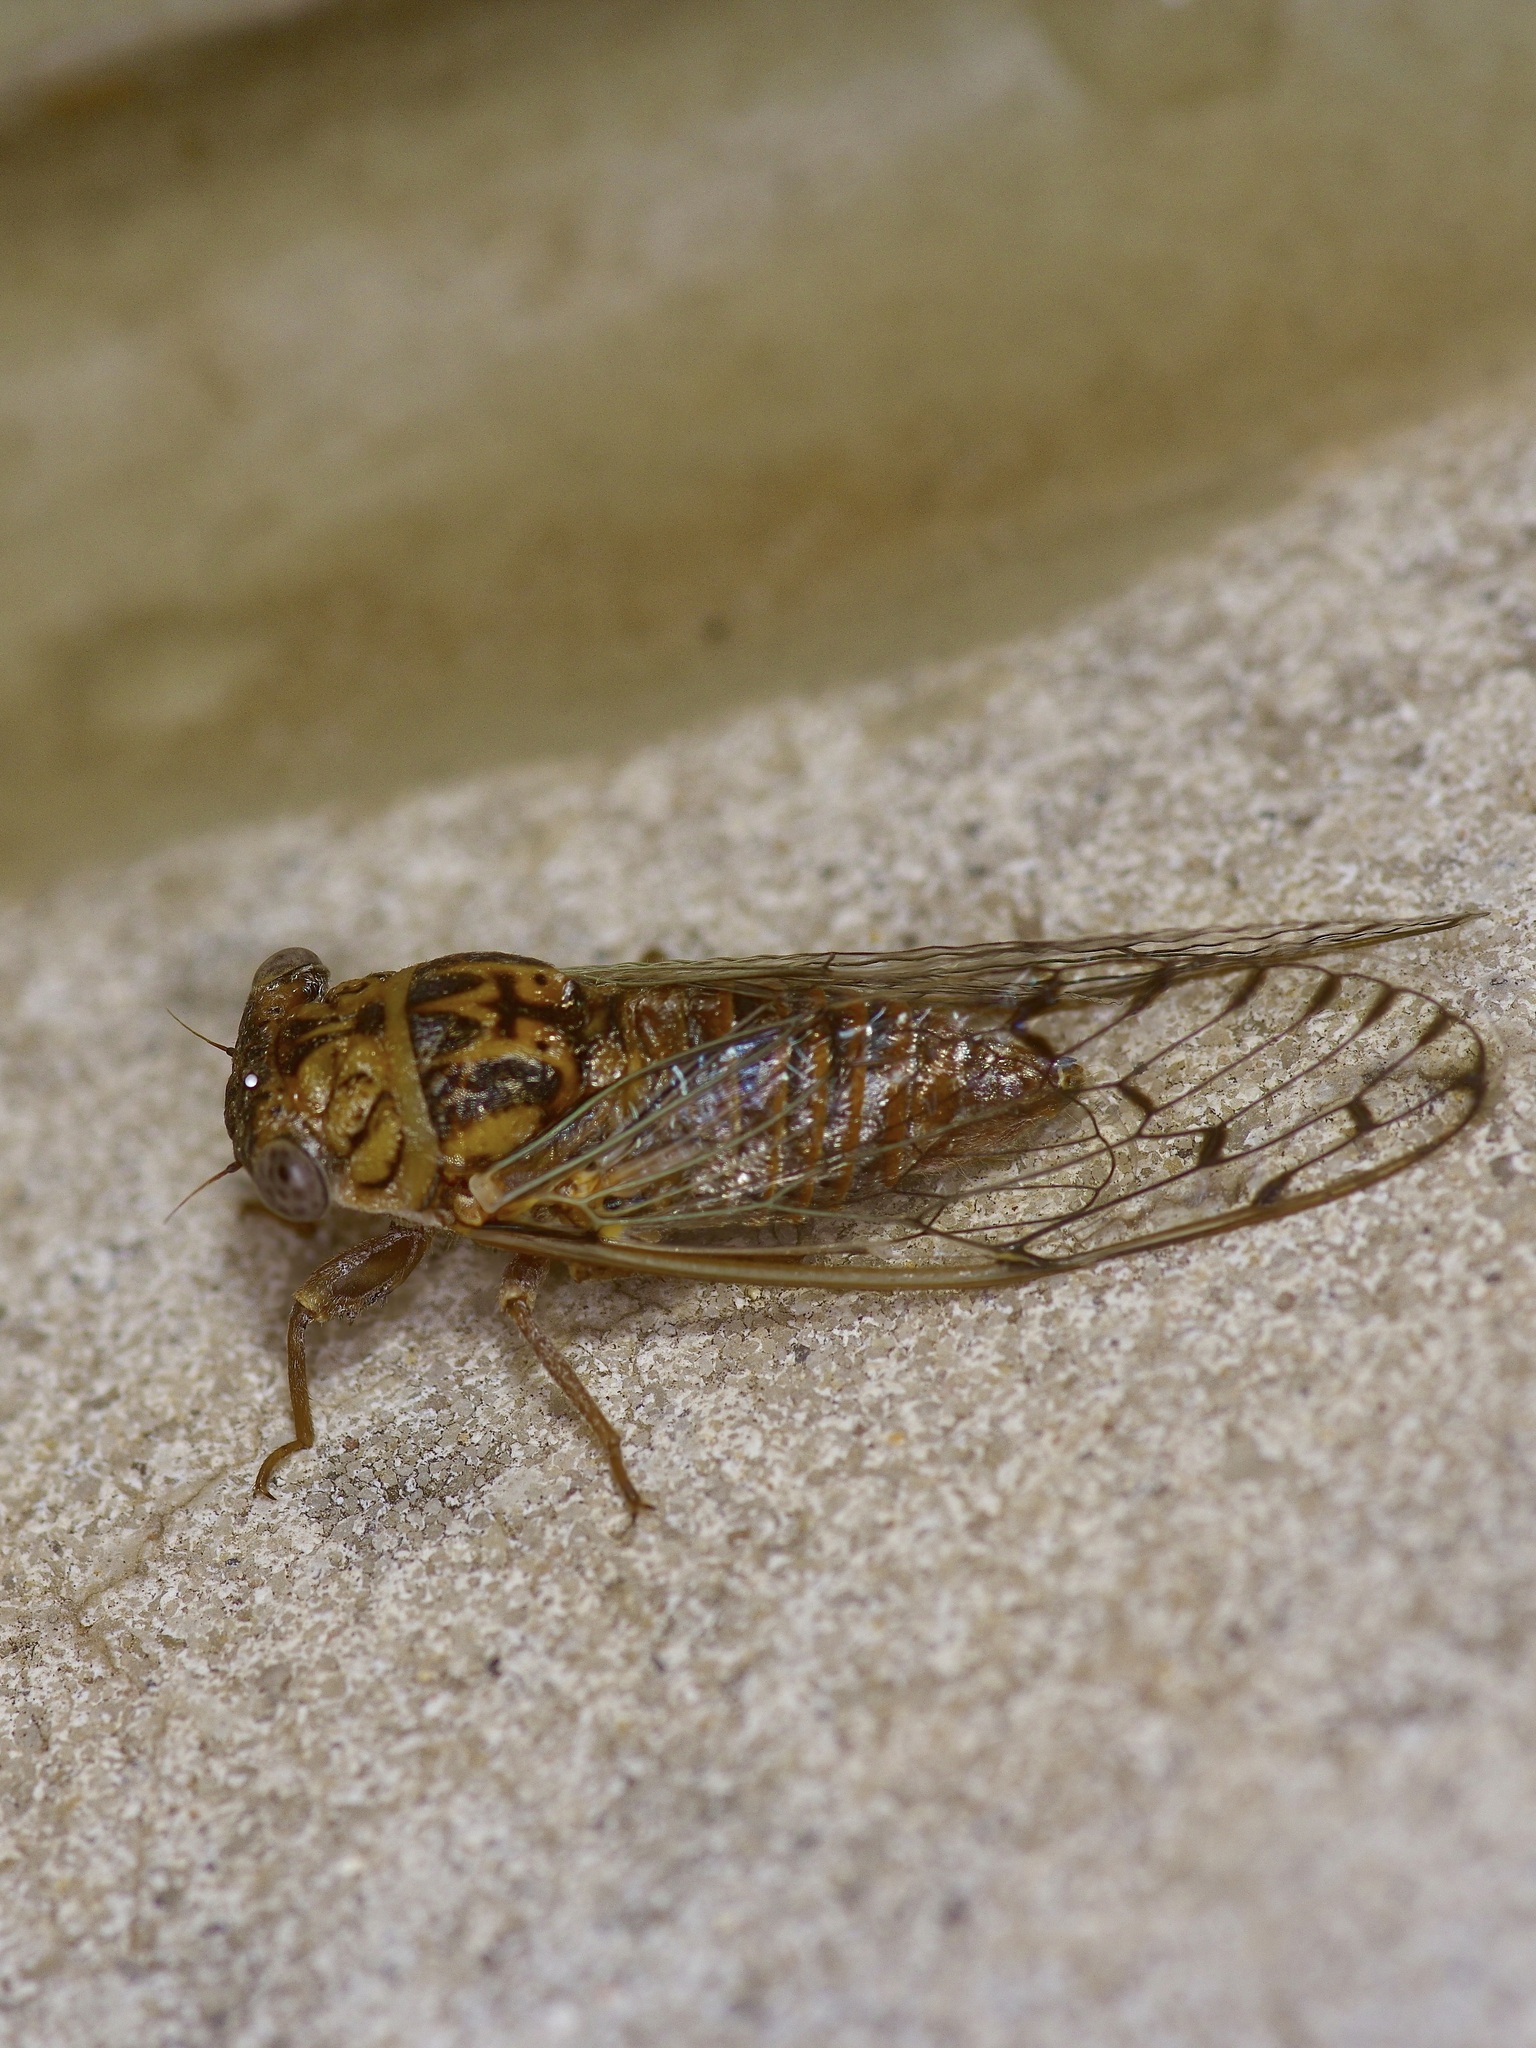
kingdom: Animalia
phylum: Arthropoda
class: Insecta
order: Hemiptera
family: Cicadidae
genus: Pacarina
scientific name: Pacarina puella
